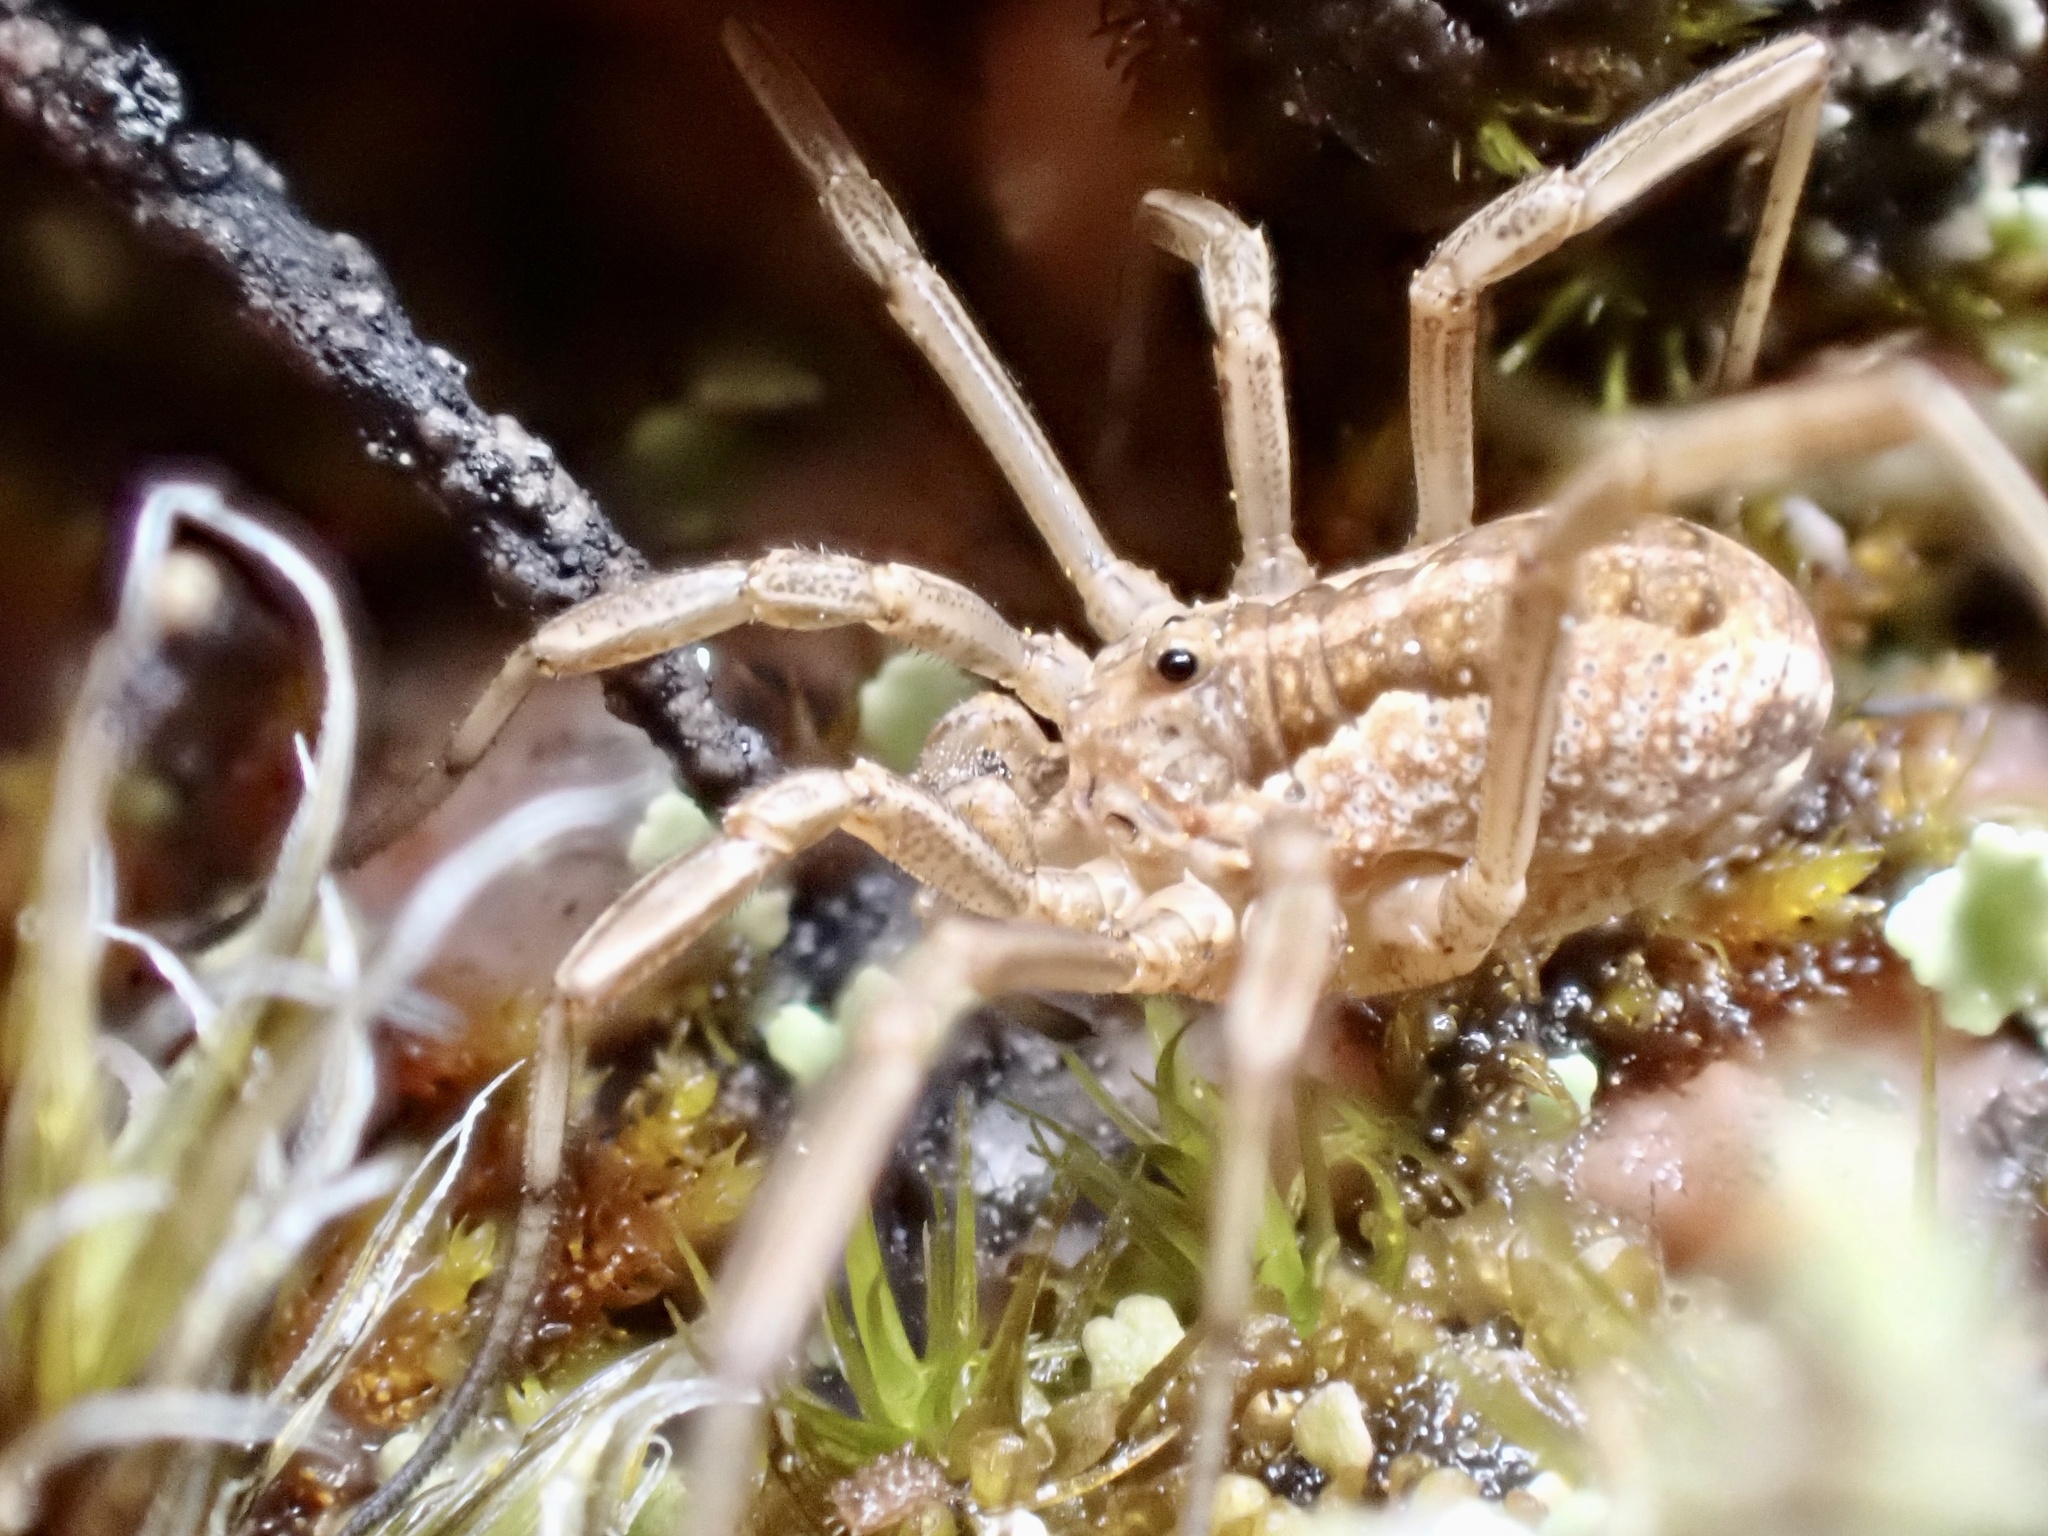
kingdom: Animalia
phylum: Arthropoda
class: Arachnida
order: Opiliones
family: Phalangiidae
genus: Mitopus
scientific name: Mitopus morio
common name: Saddleback harvestman
